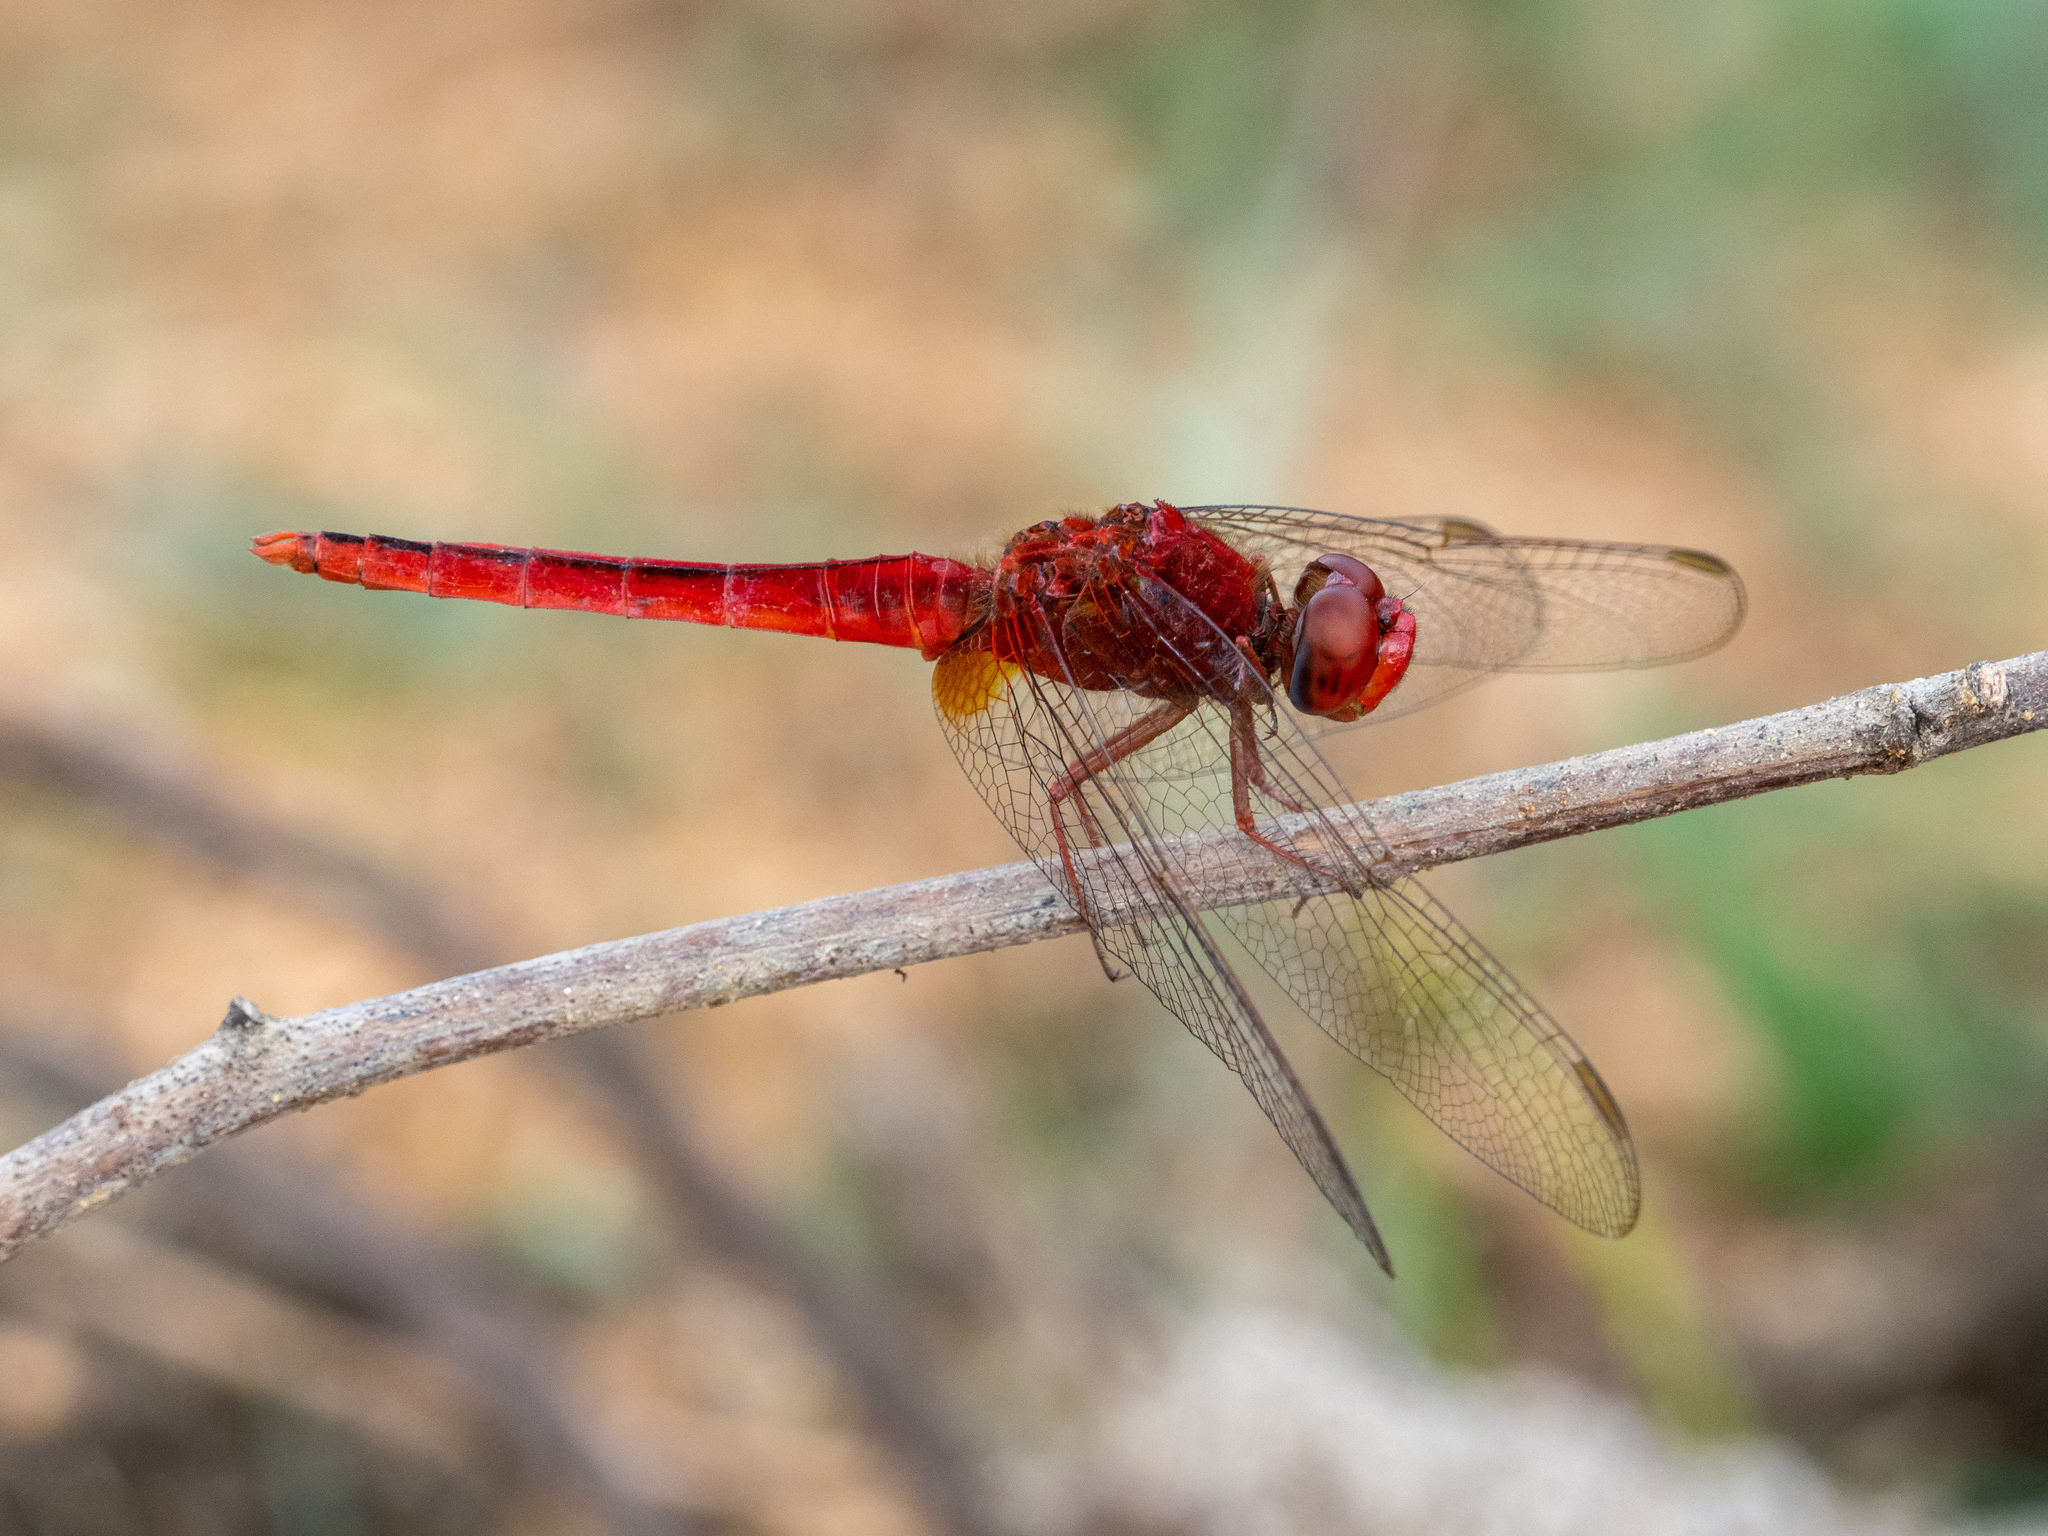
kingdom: Animalia
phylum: Arthropoda
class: Insecta
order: Odonata
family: Libellulidae
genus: Crocothemis
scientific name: Crocothemis servilia
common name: Scarlet skimmer
